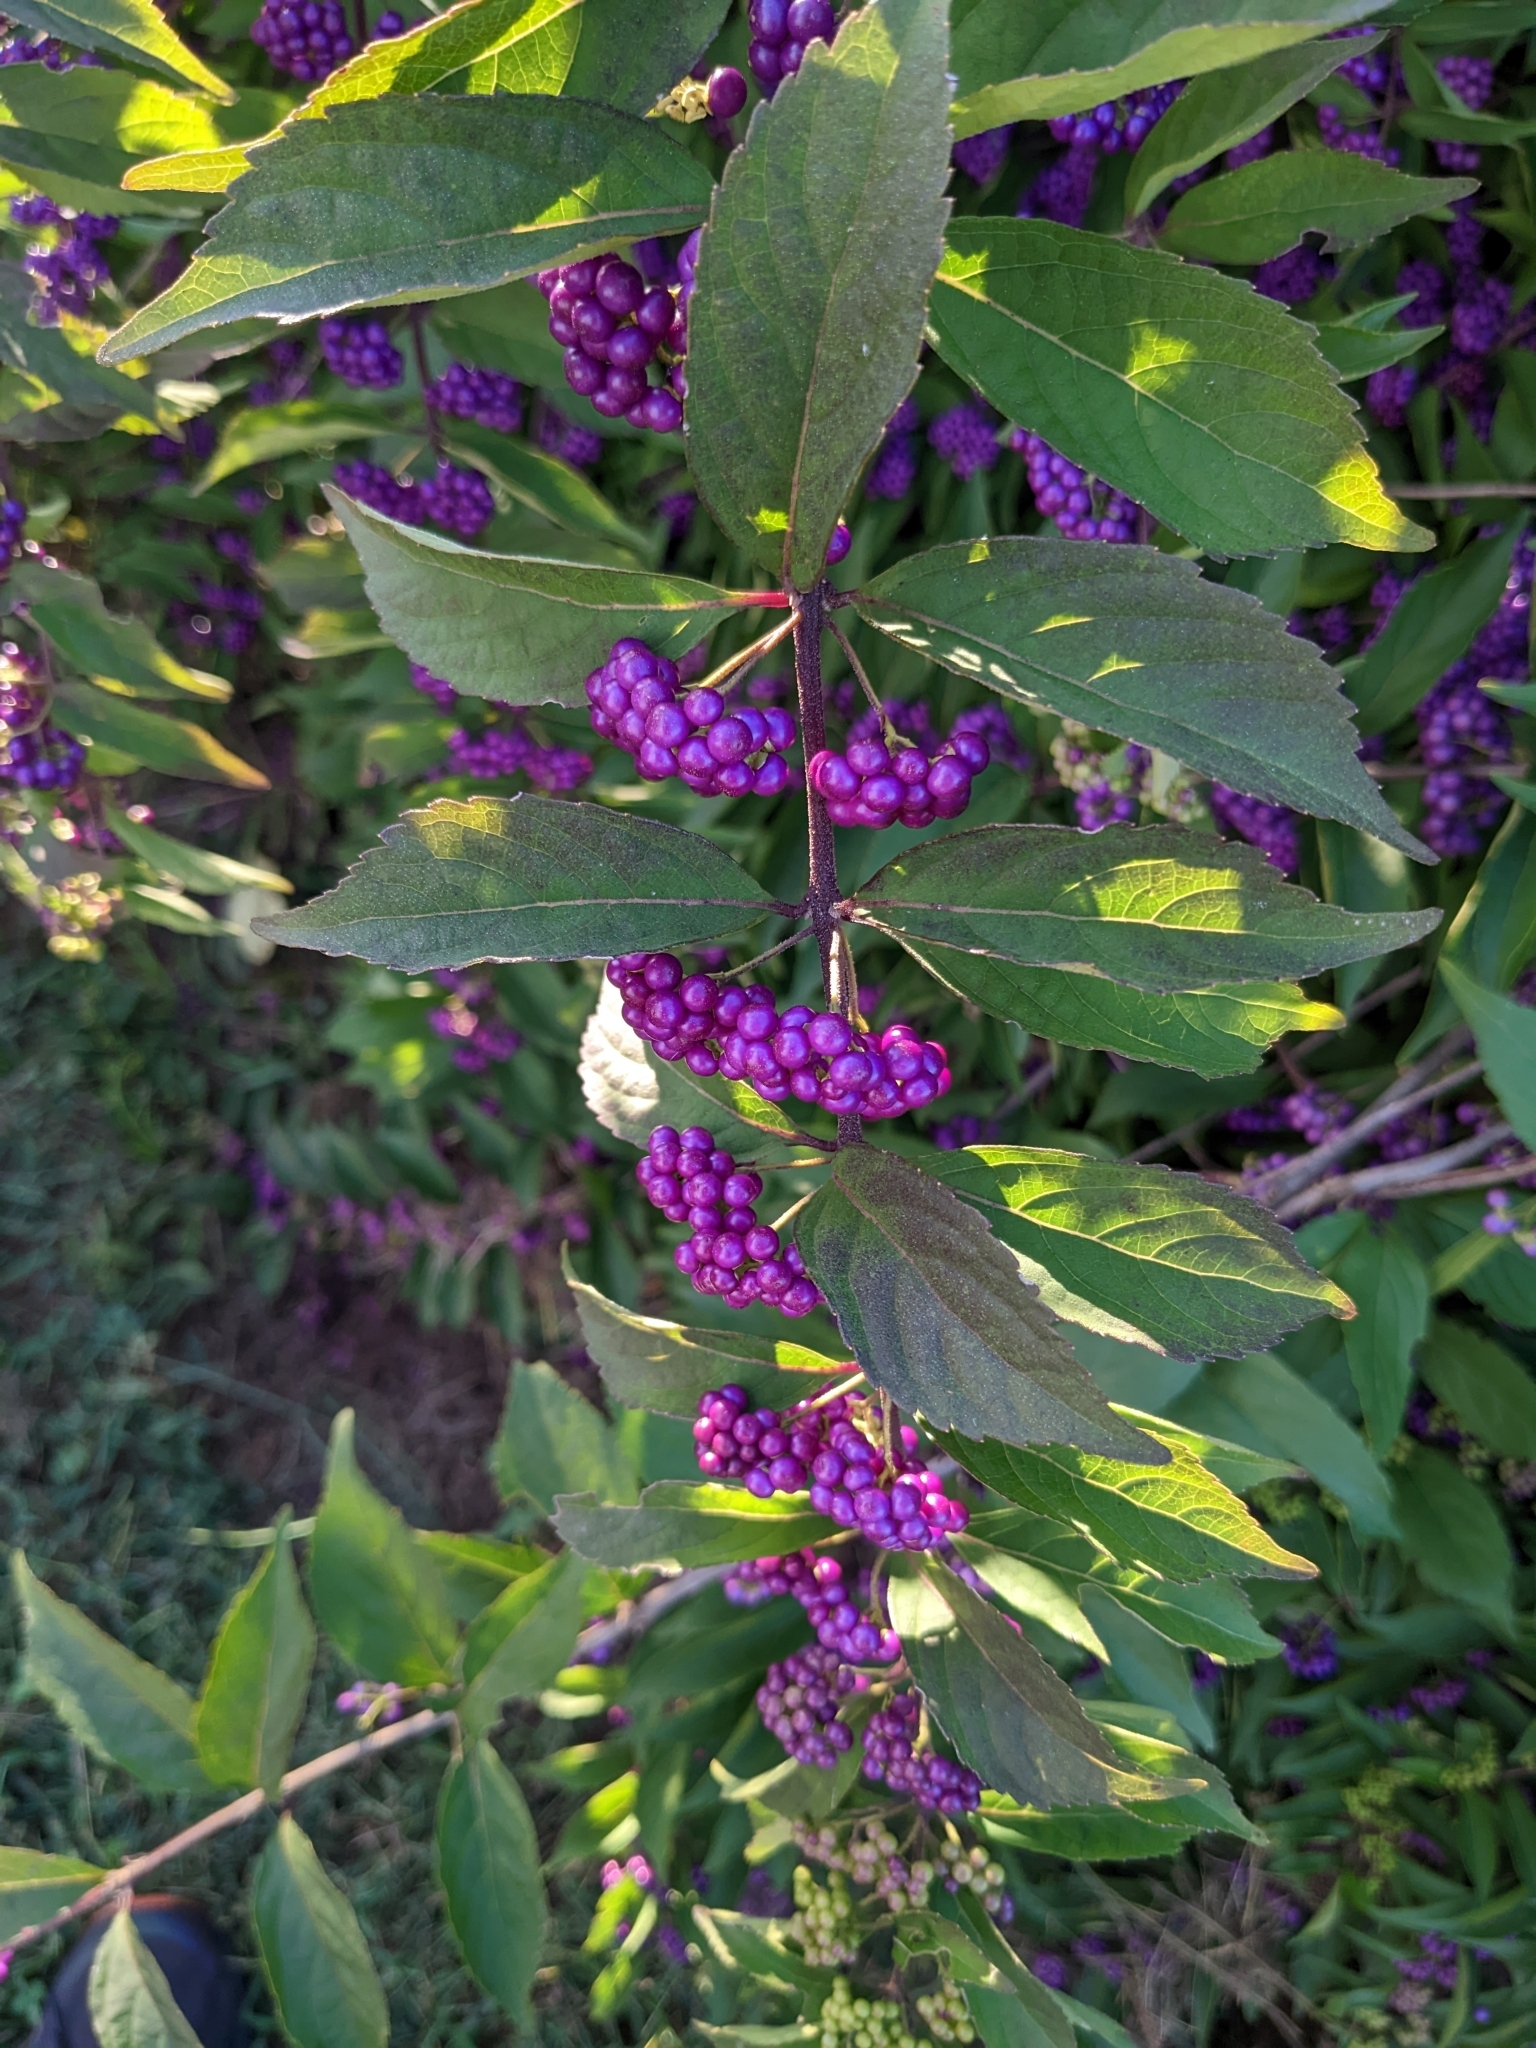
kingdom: Plantae
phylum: Tracheophyta
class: Magnoliopsida
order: Lamiales
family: Lamiaceae
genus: Callicarpa
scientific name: Callicarpa dichotoma
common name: Purple beauty-berry
